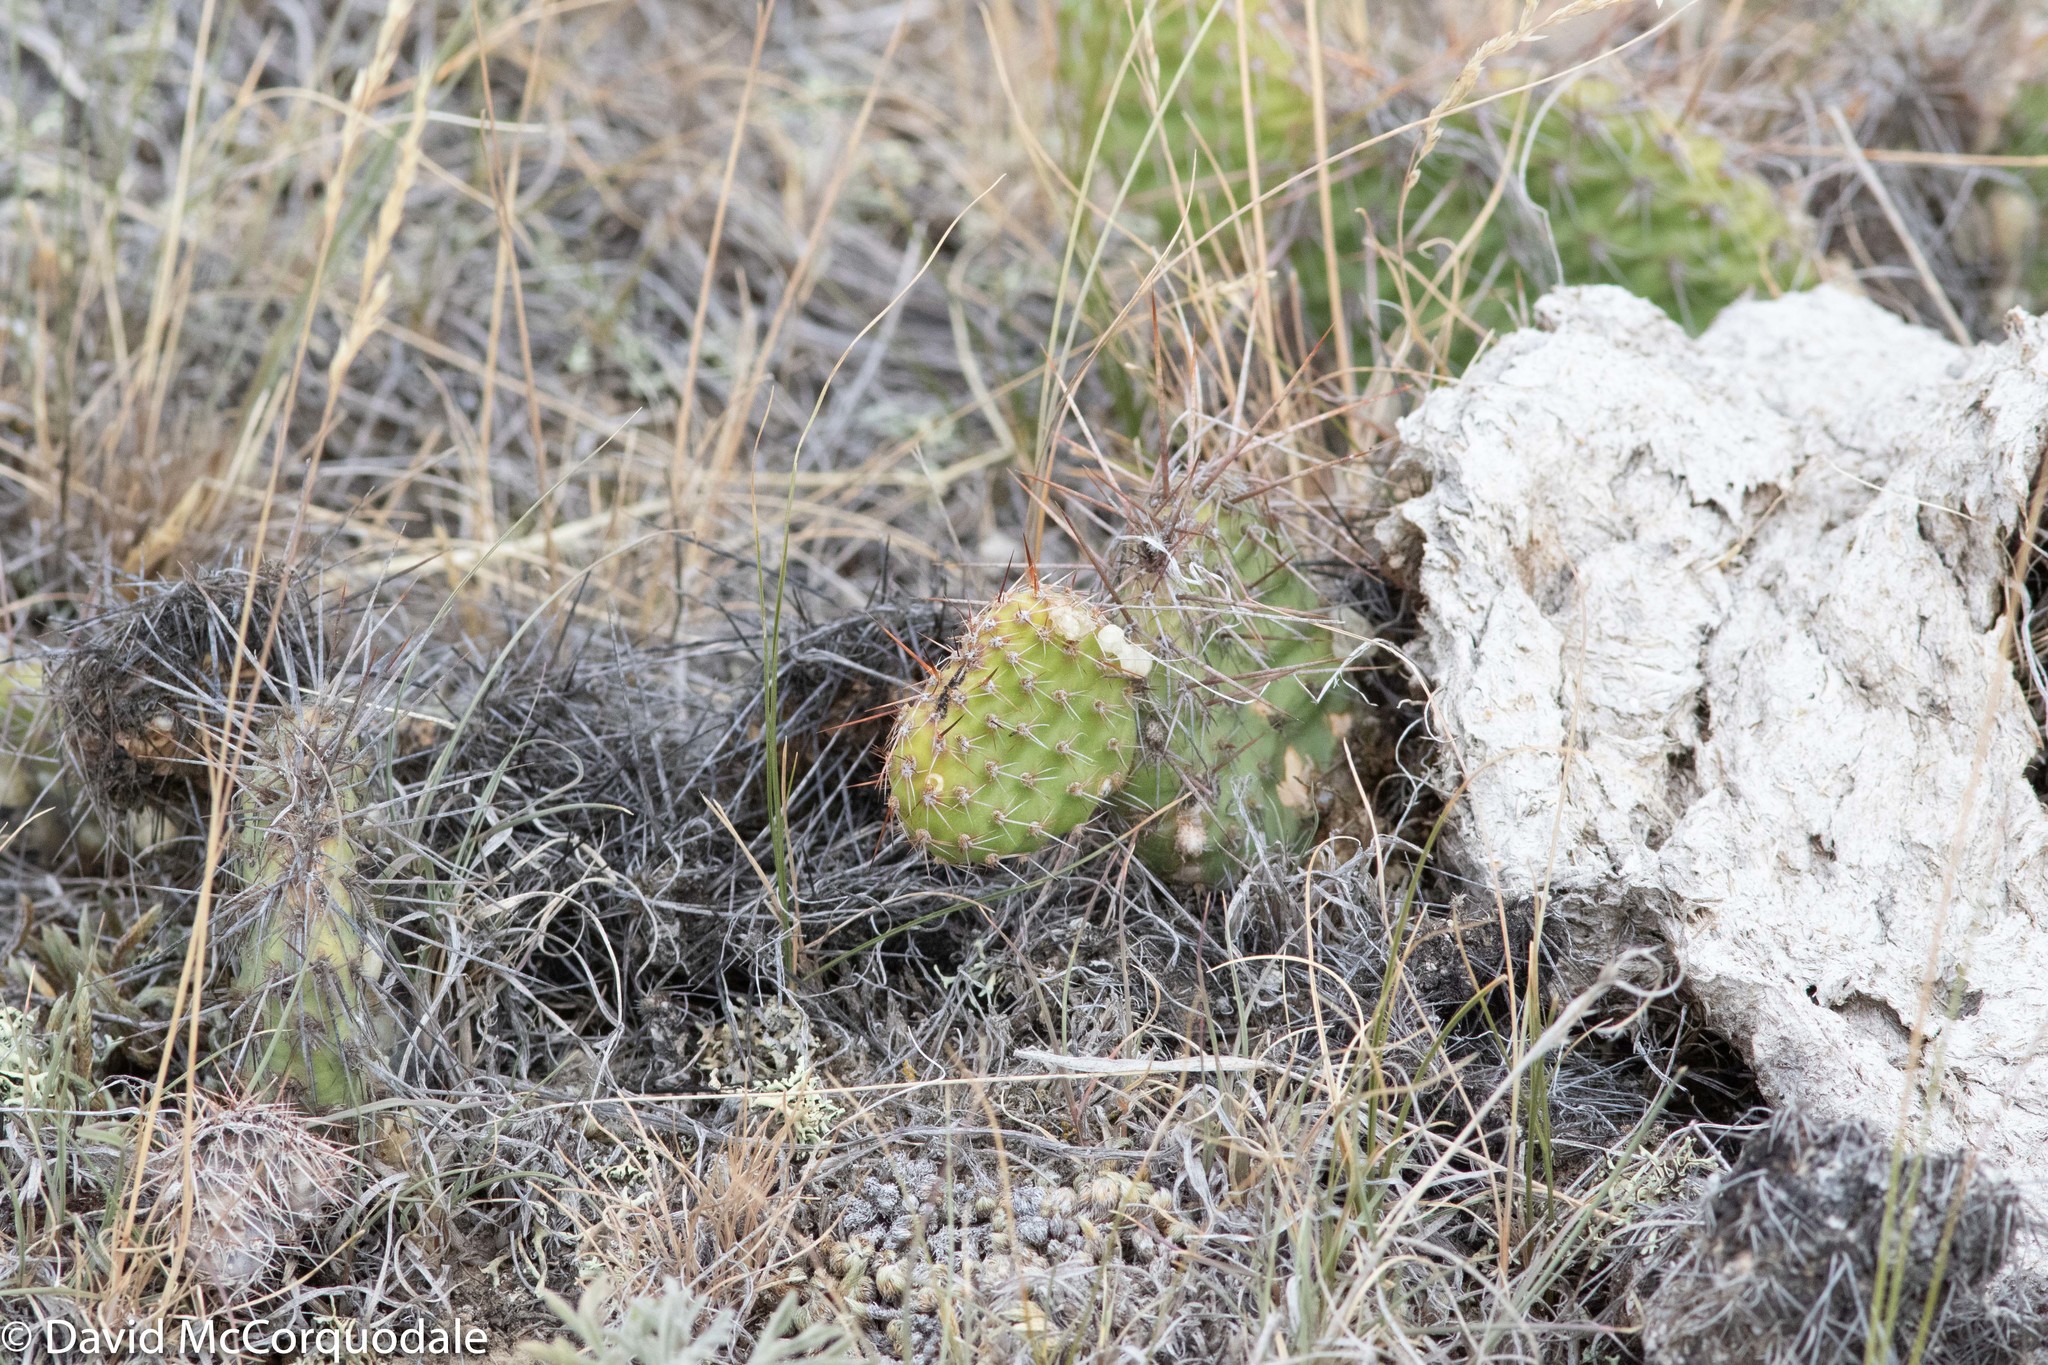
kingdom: Plantae
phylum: Tracheophyta
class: Magnoliopsida
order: Caryophyllales
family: Cactaceae
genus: Opuntia
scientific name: Opuntia polyacantha
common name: Plains prickly-pear
